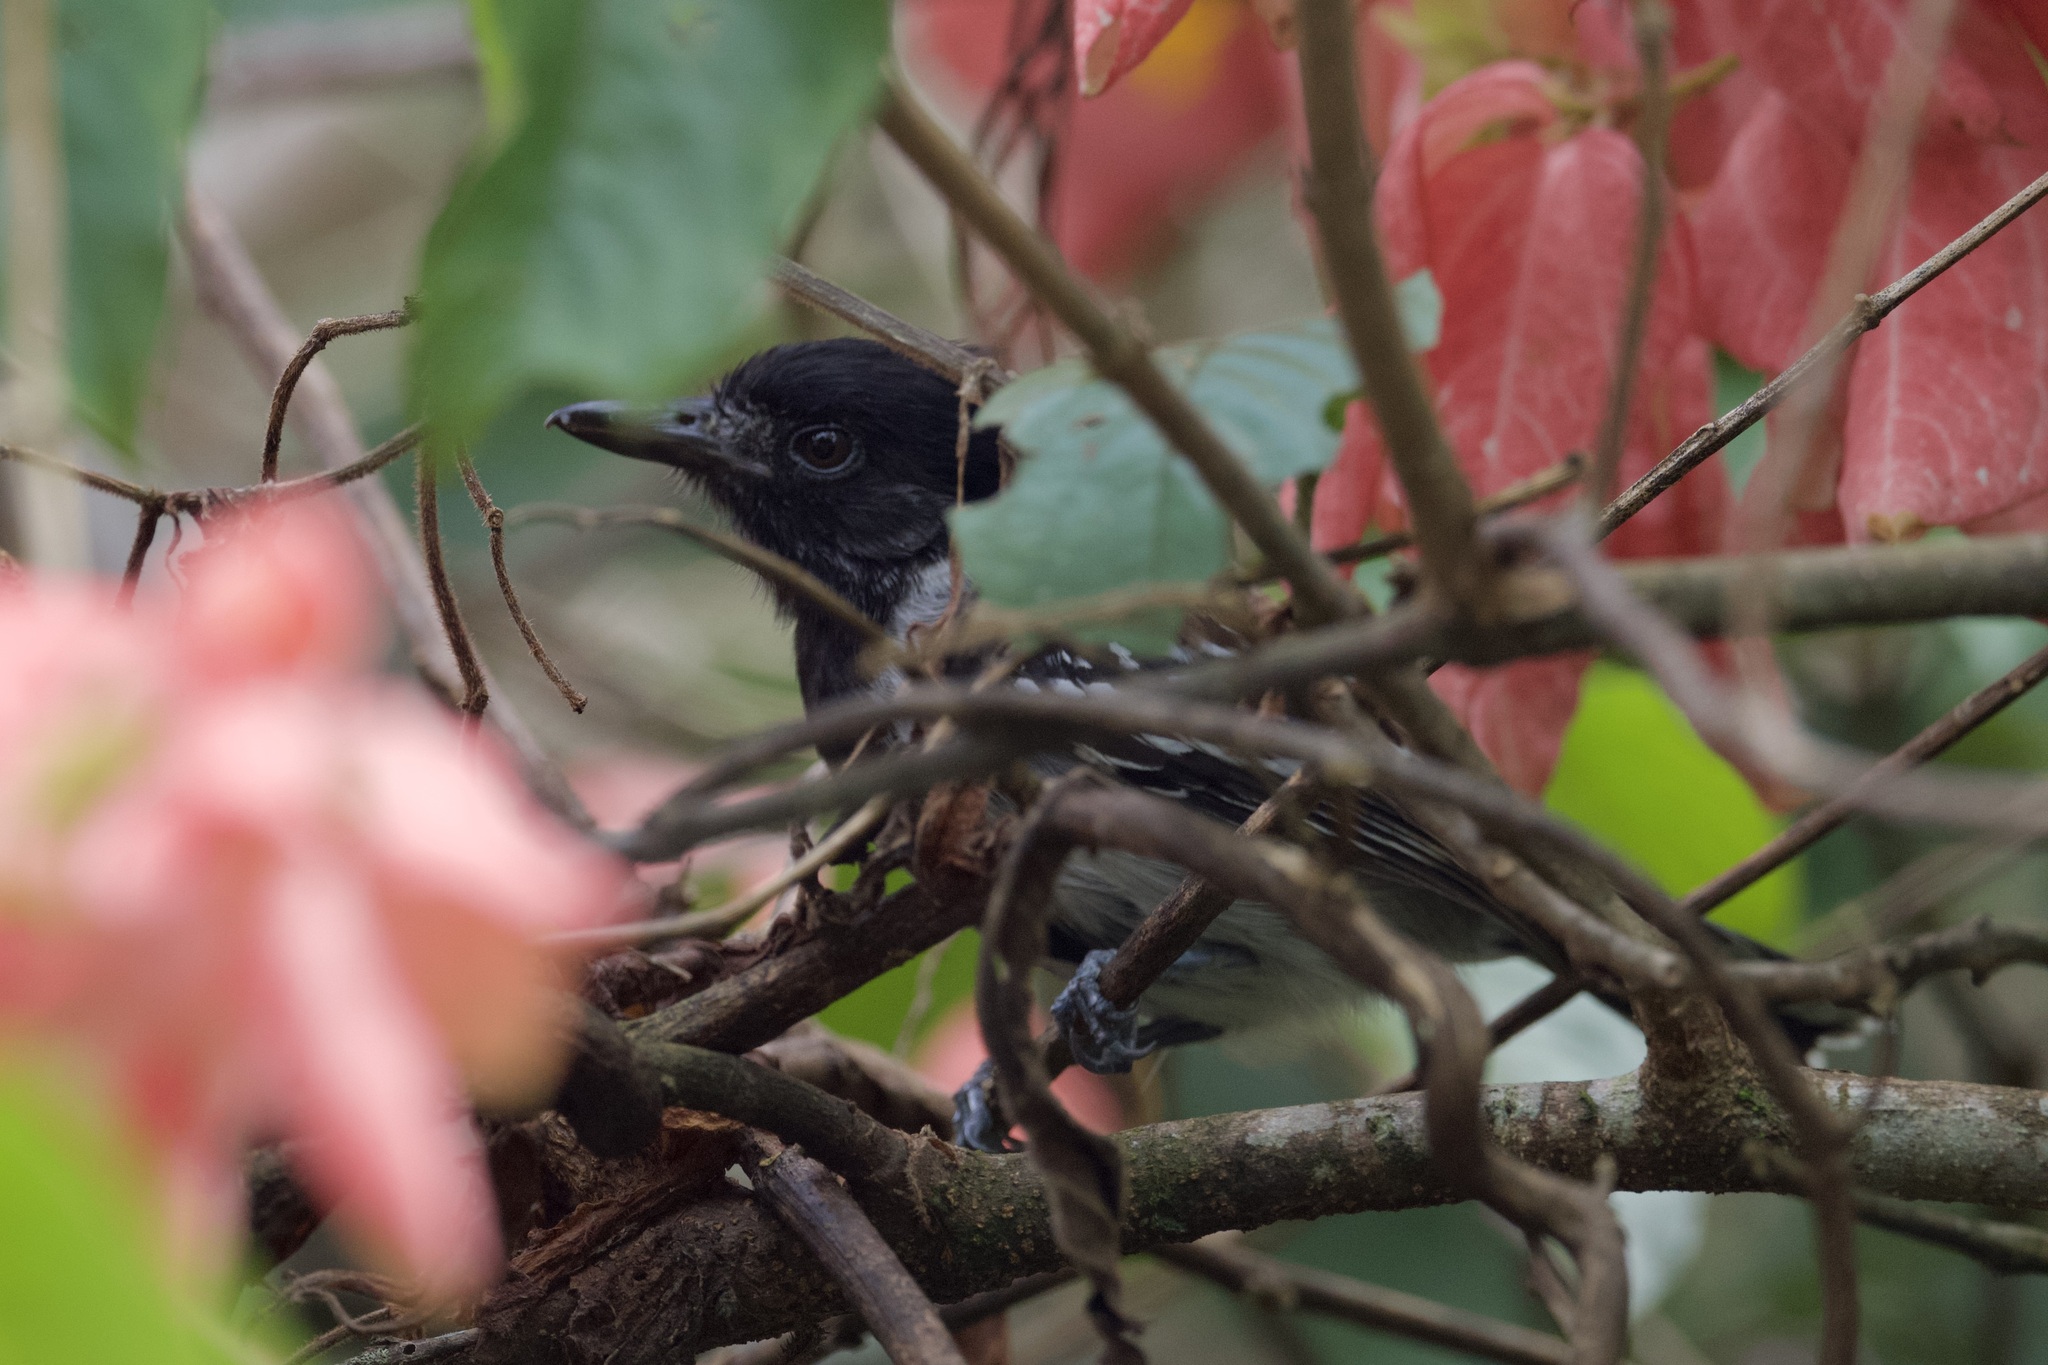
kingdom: Animalia
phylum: Chordata
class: Aves
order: Passeriformes
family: Thamnophilidae
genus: Sakesphorus
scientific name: Sakesphorus canadensis
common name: Black-crested antshrike
